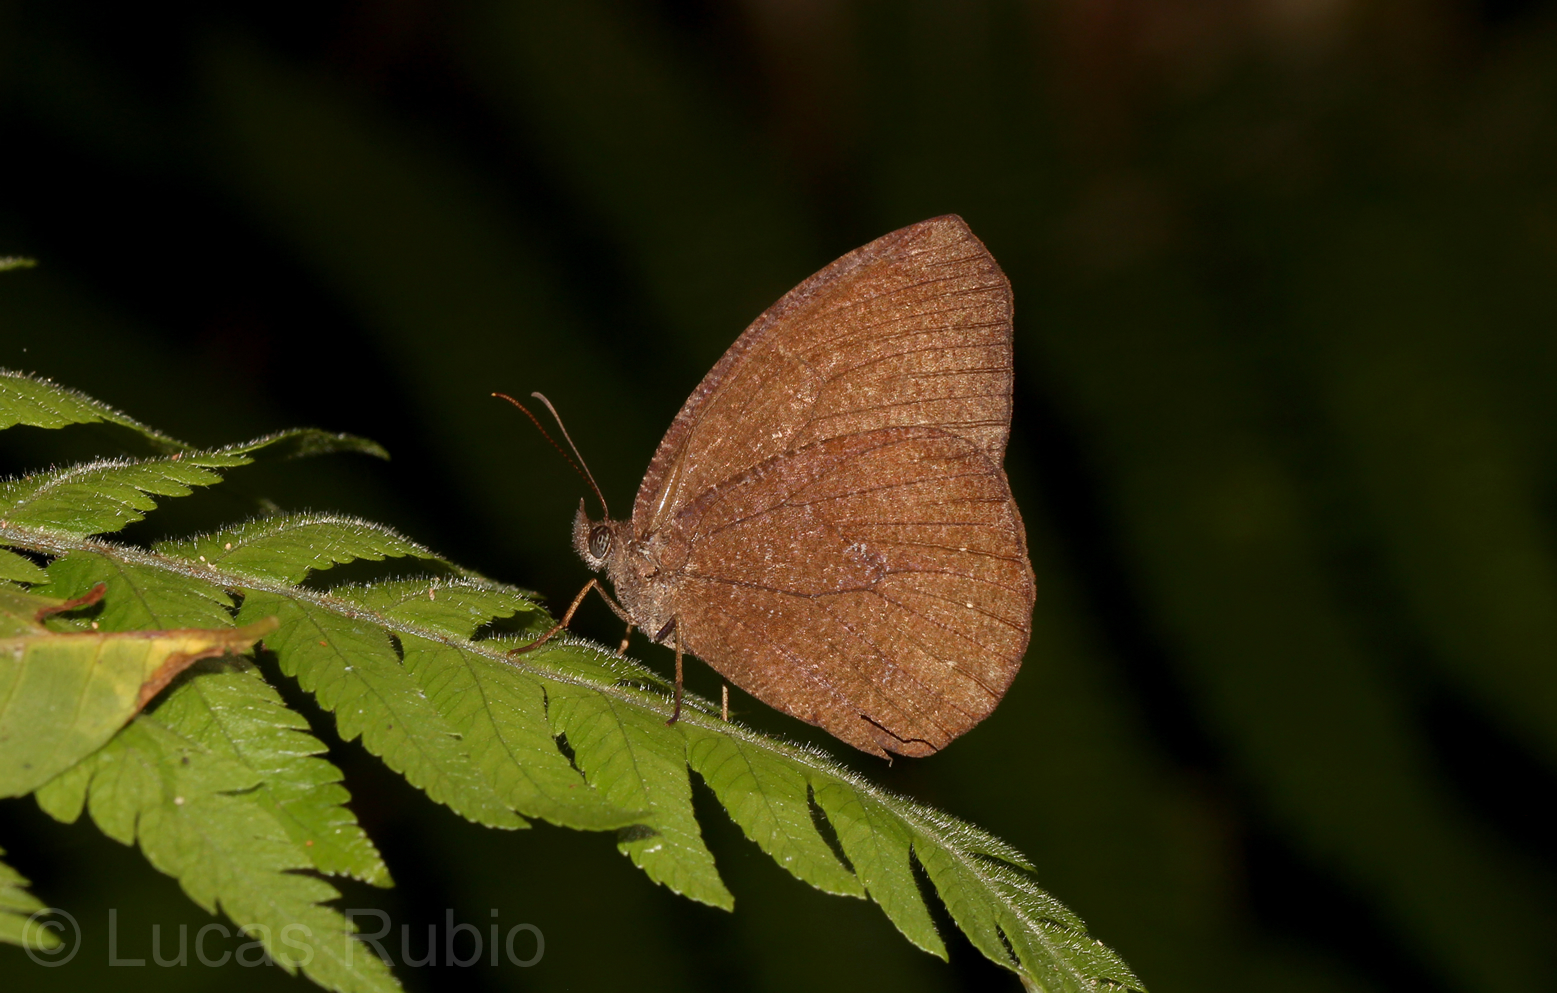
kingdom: Animalia
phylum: Arthropoda
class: Insecta
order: Lepidoptera
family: Nymphalidae
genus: Godartiana
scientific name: Godartiana muscosa
